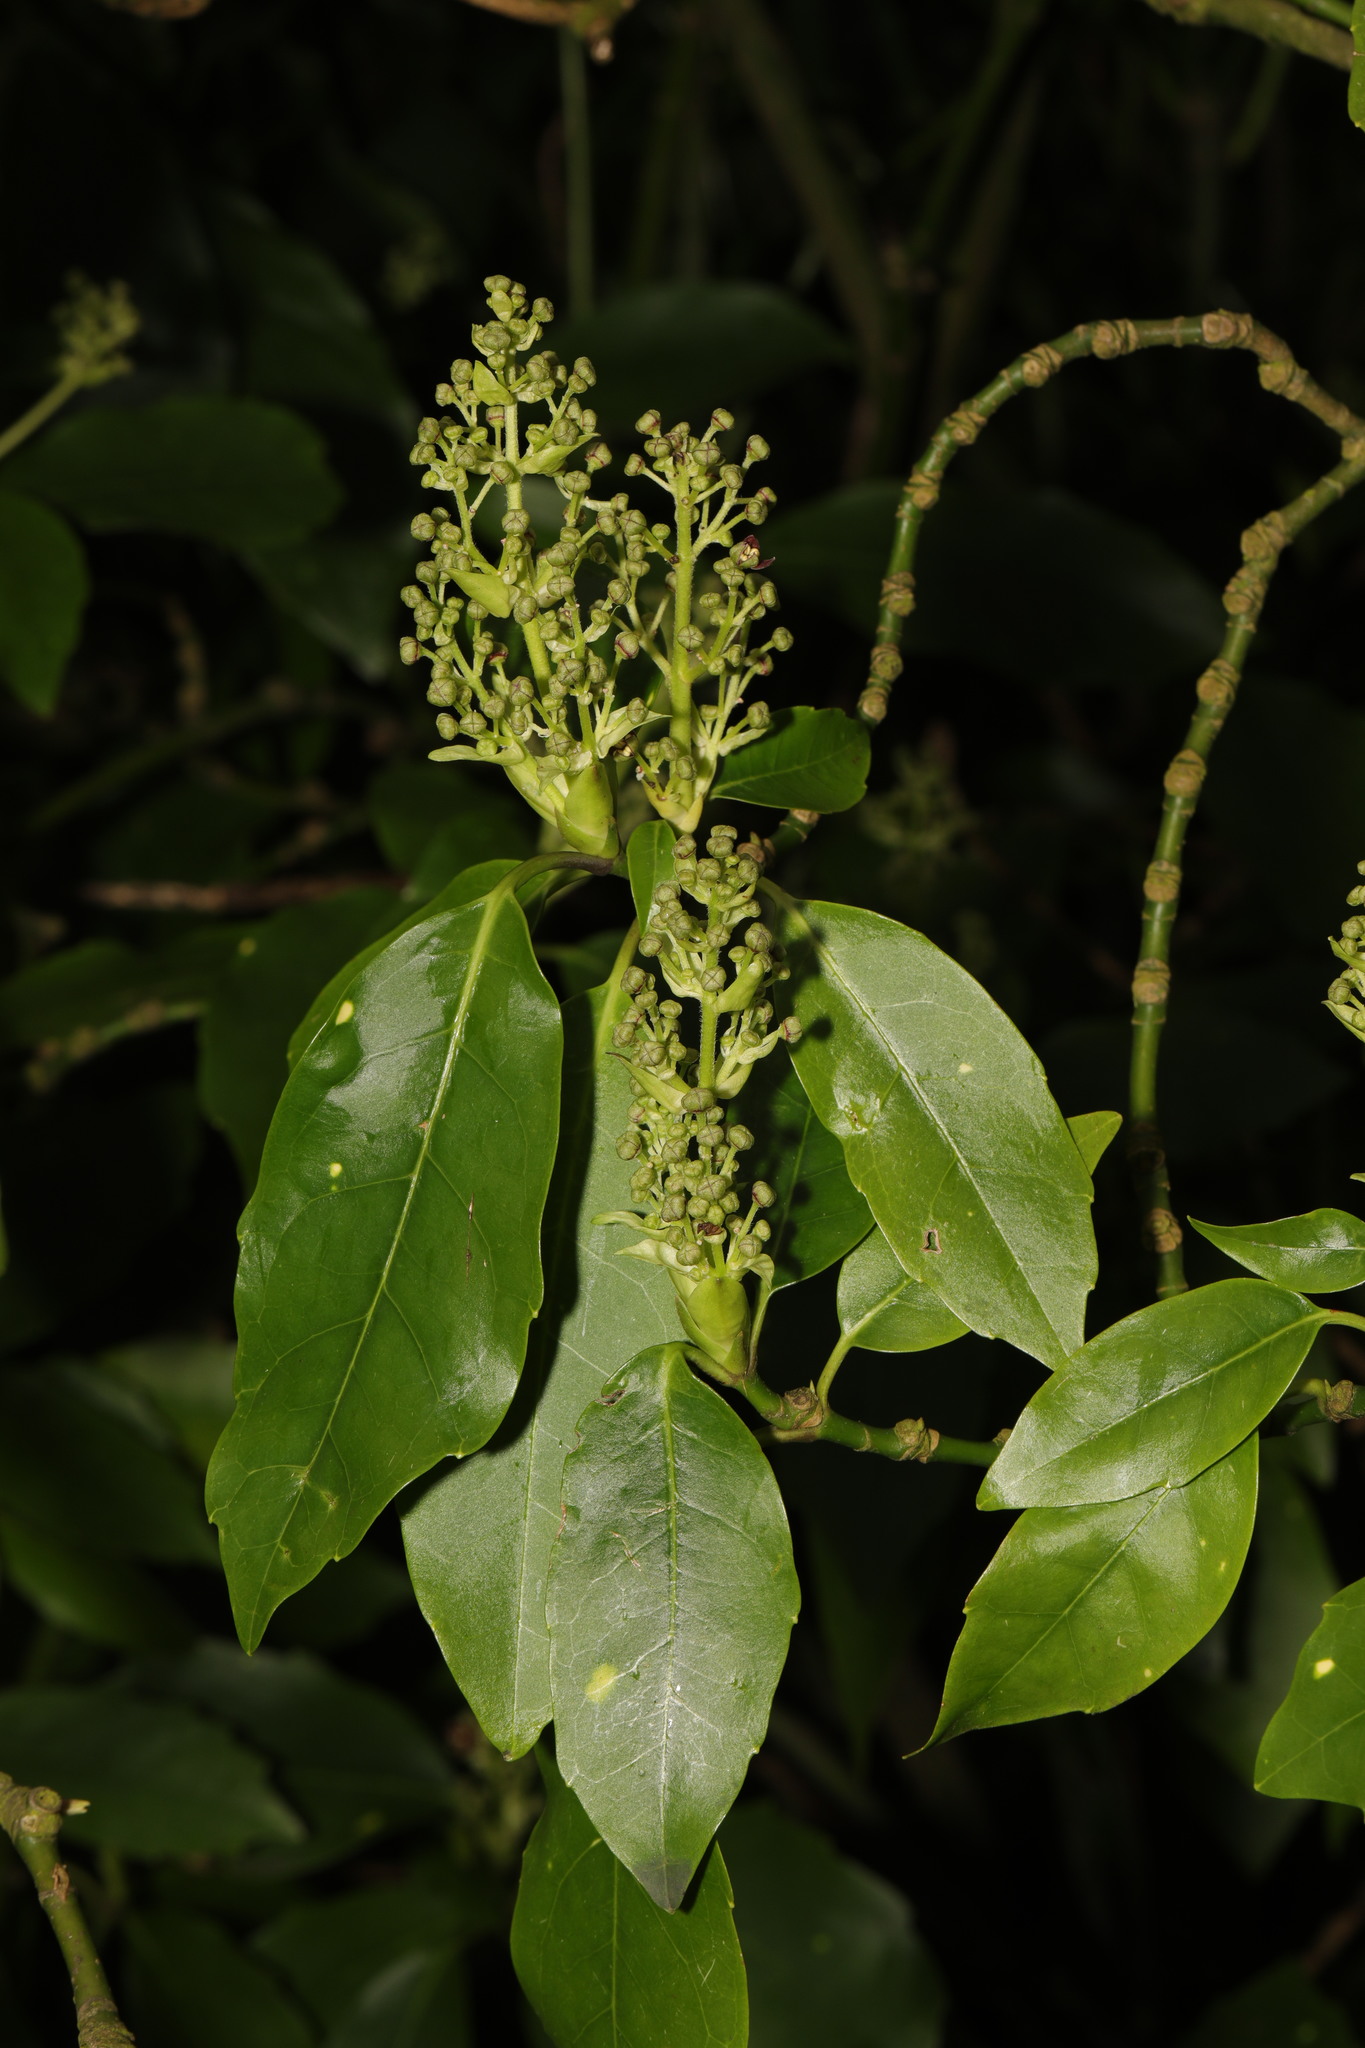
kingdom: Plantae
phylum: Tracheophyta
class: Magnoliopsida
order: Garryales
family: Garryaceae
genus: Aucuba
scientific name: Aucuba japonica
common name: Spotted-laurel
